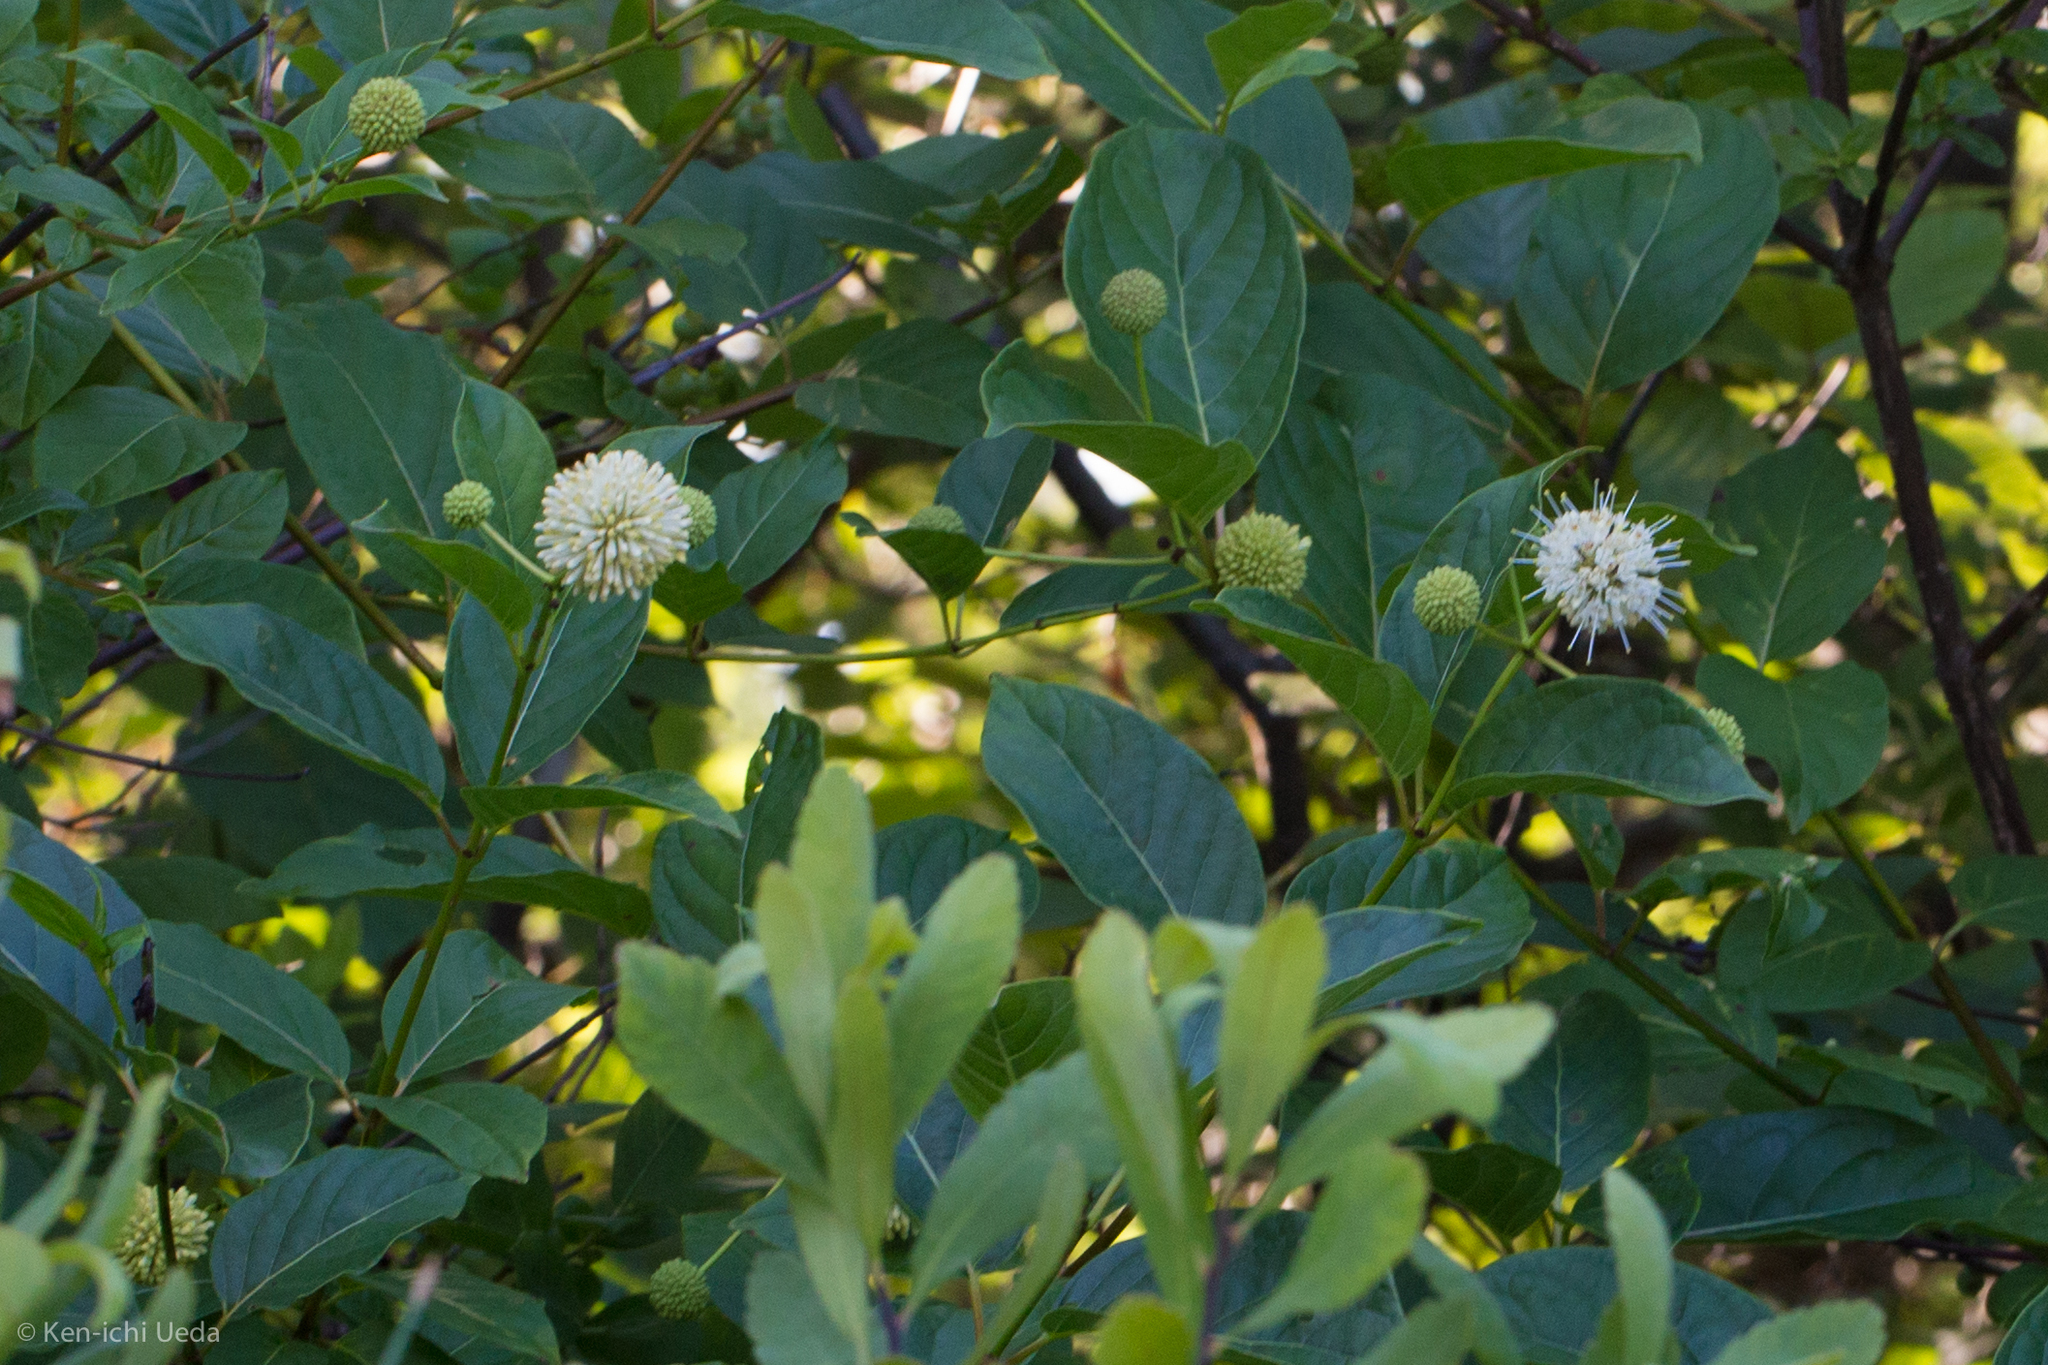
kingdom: Plantae
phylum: Tracheophyta
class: Magnoliopsida
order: Gentianales
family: Rubiaceae
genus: Cephalanthus
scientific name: Cephalanthus occidentalis
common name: Button-willow
